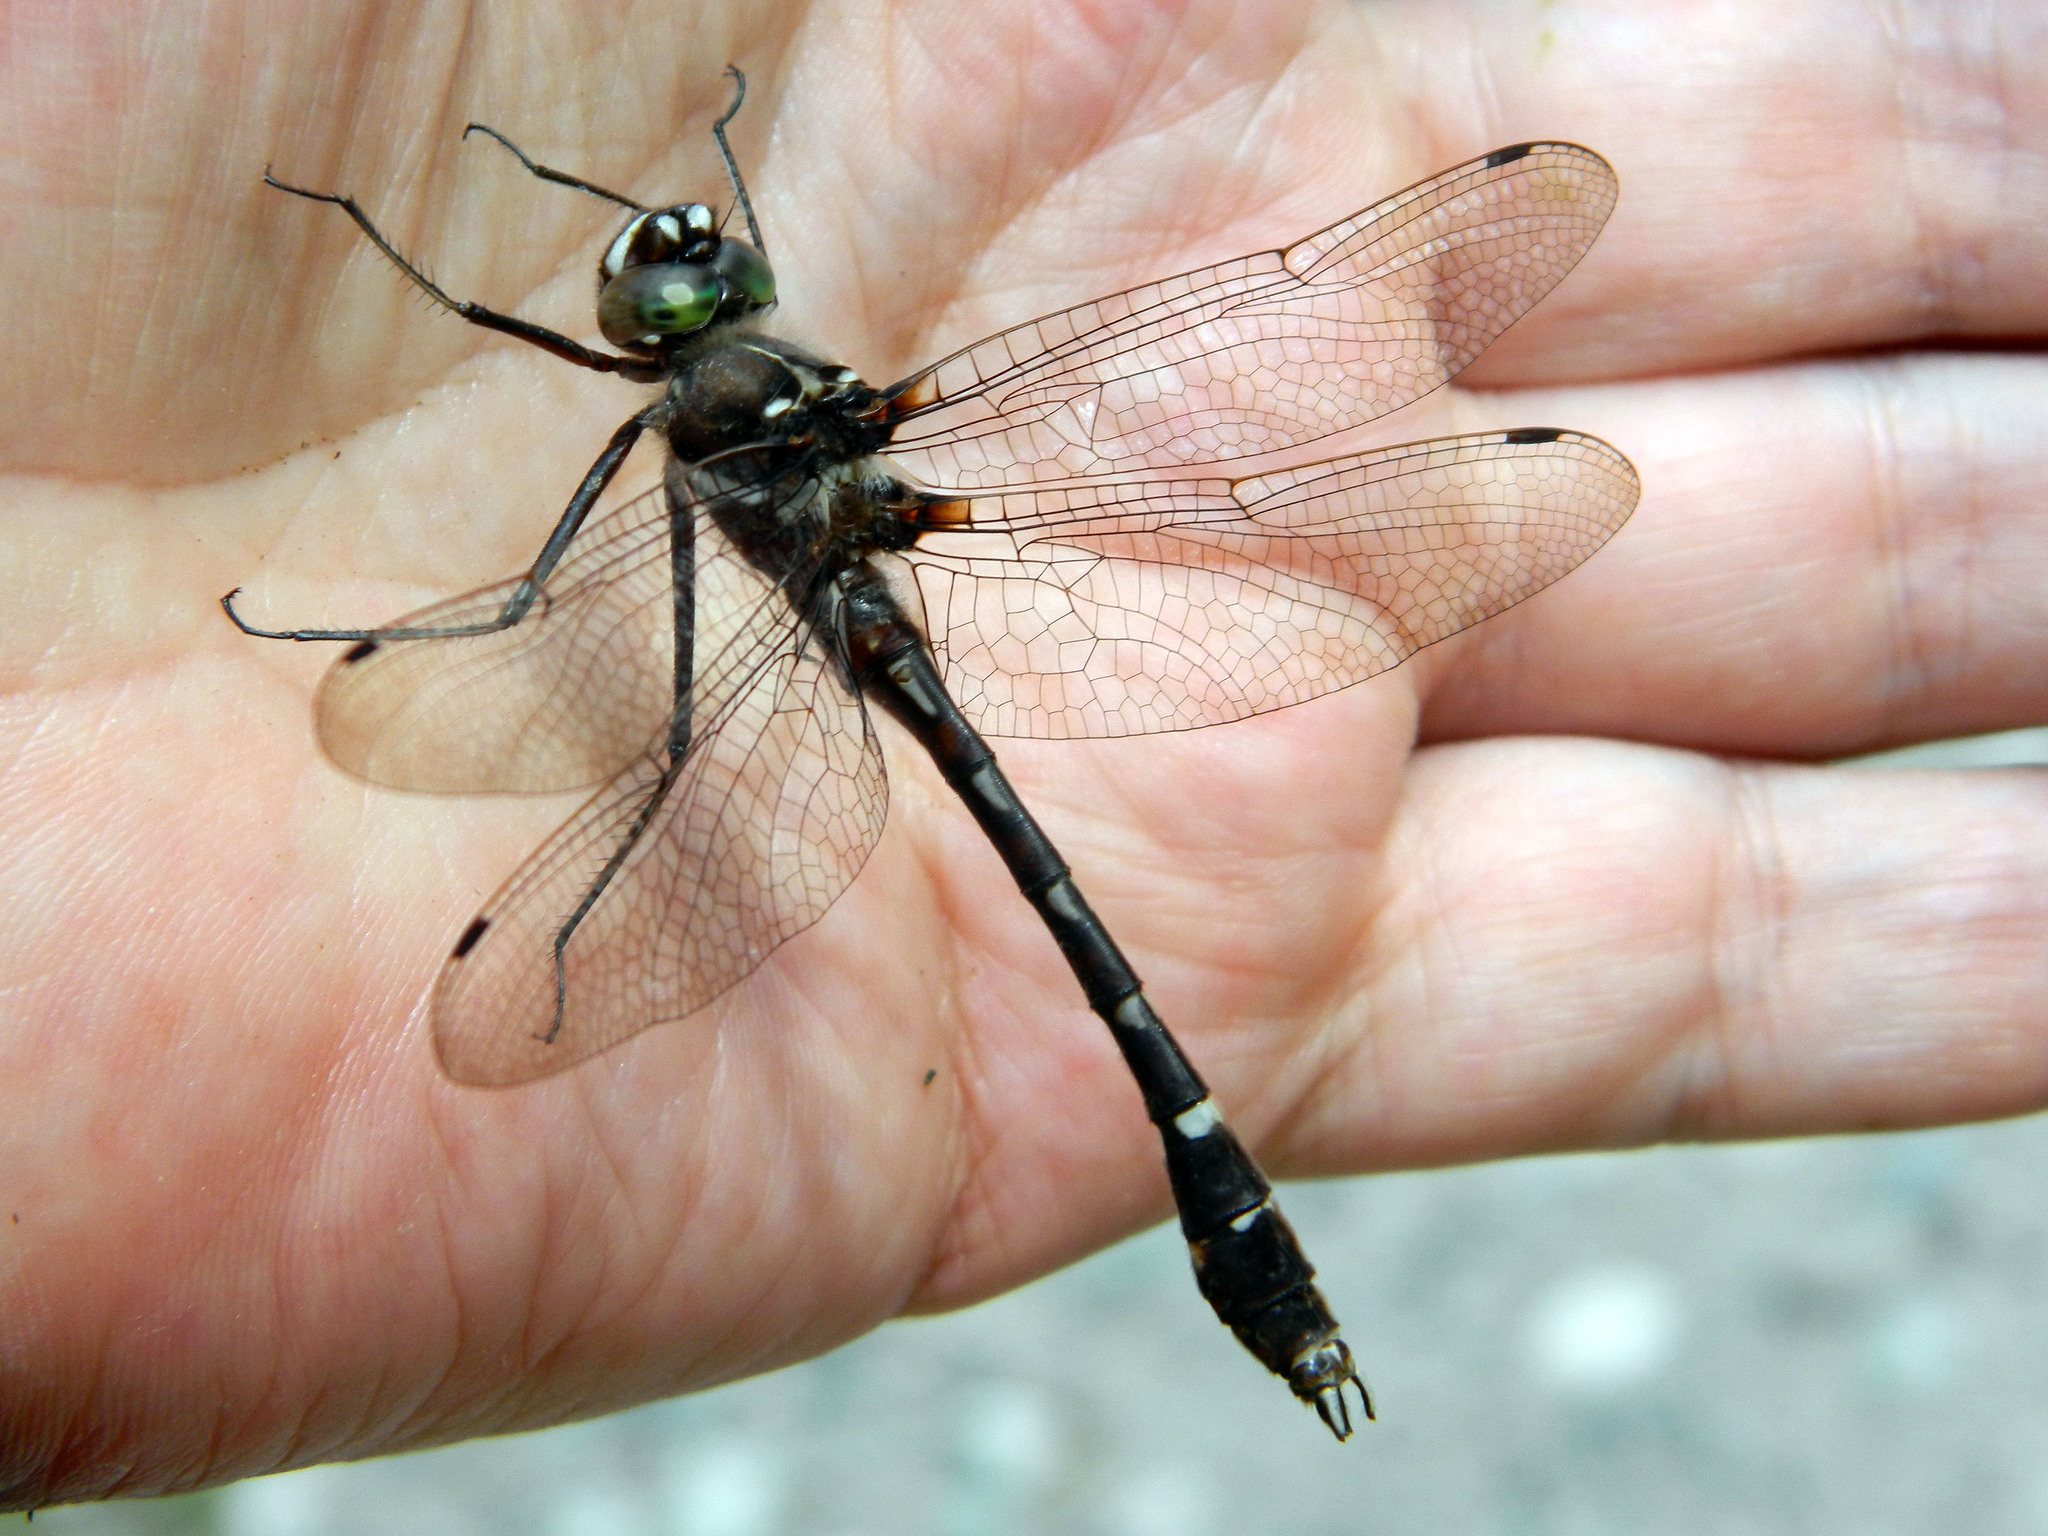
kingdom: Animalia
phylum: Arthropoda
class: Insecta
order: Odonata
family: Macromiidae
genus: Didymops
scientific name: Didymops transversa
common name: Stream cruiser
